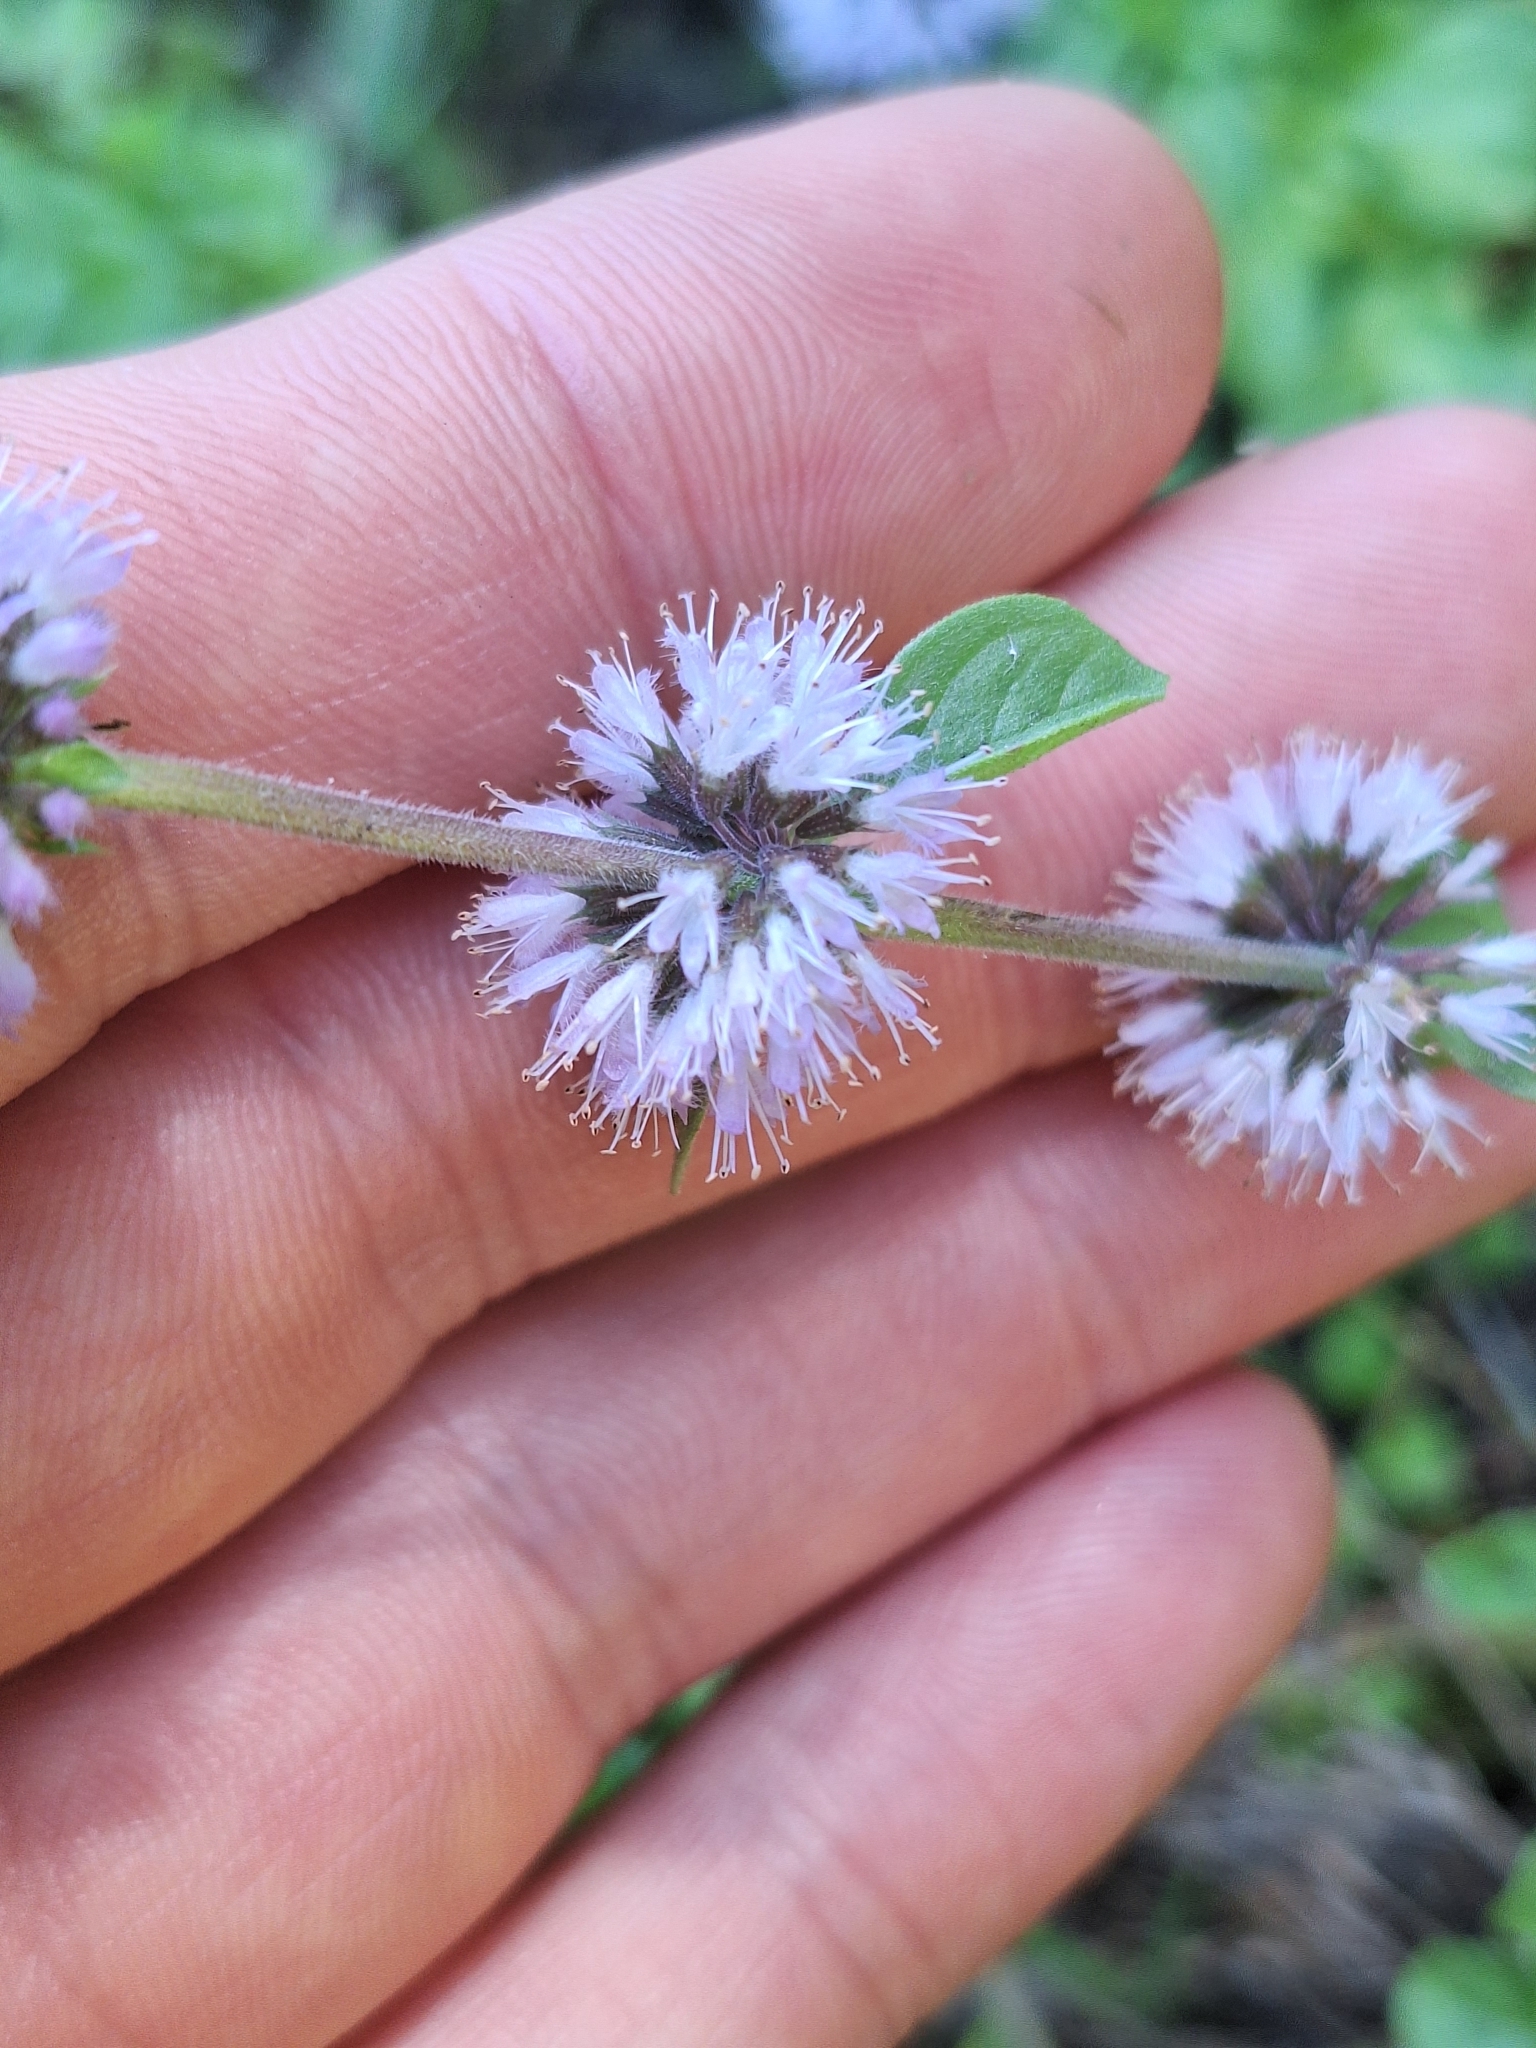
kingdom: Plantae
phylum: Tracheophyta
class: Magnoliopsida
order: Lamiales
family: Lamiaceae
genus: Mentha
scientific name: Mentha pulegium
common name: Pennyroyal
